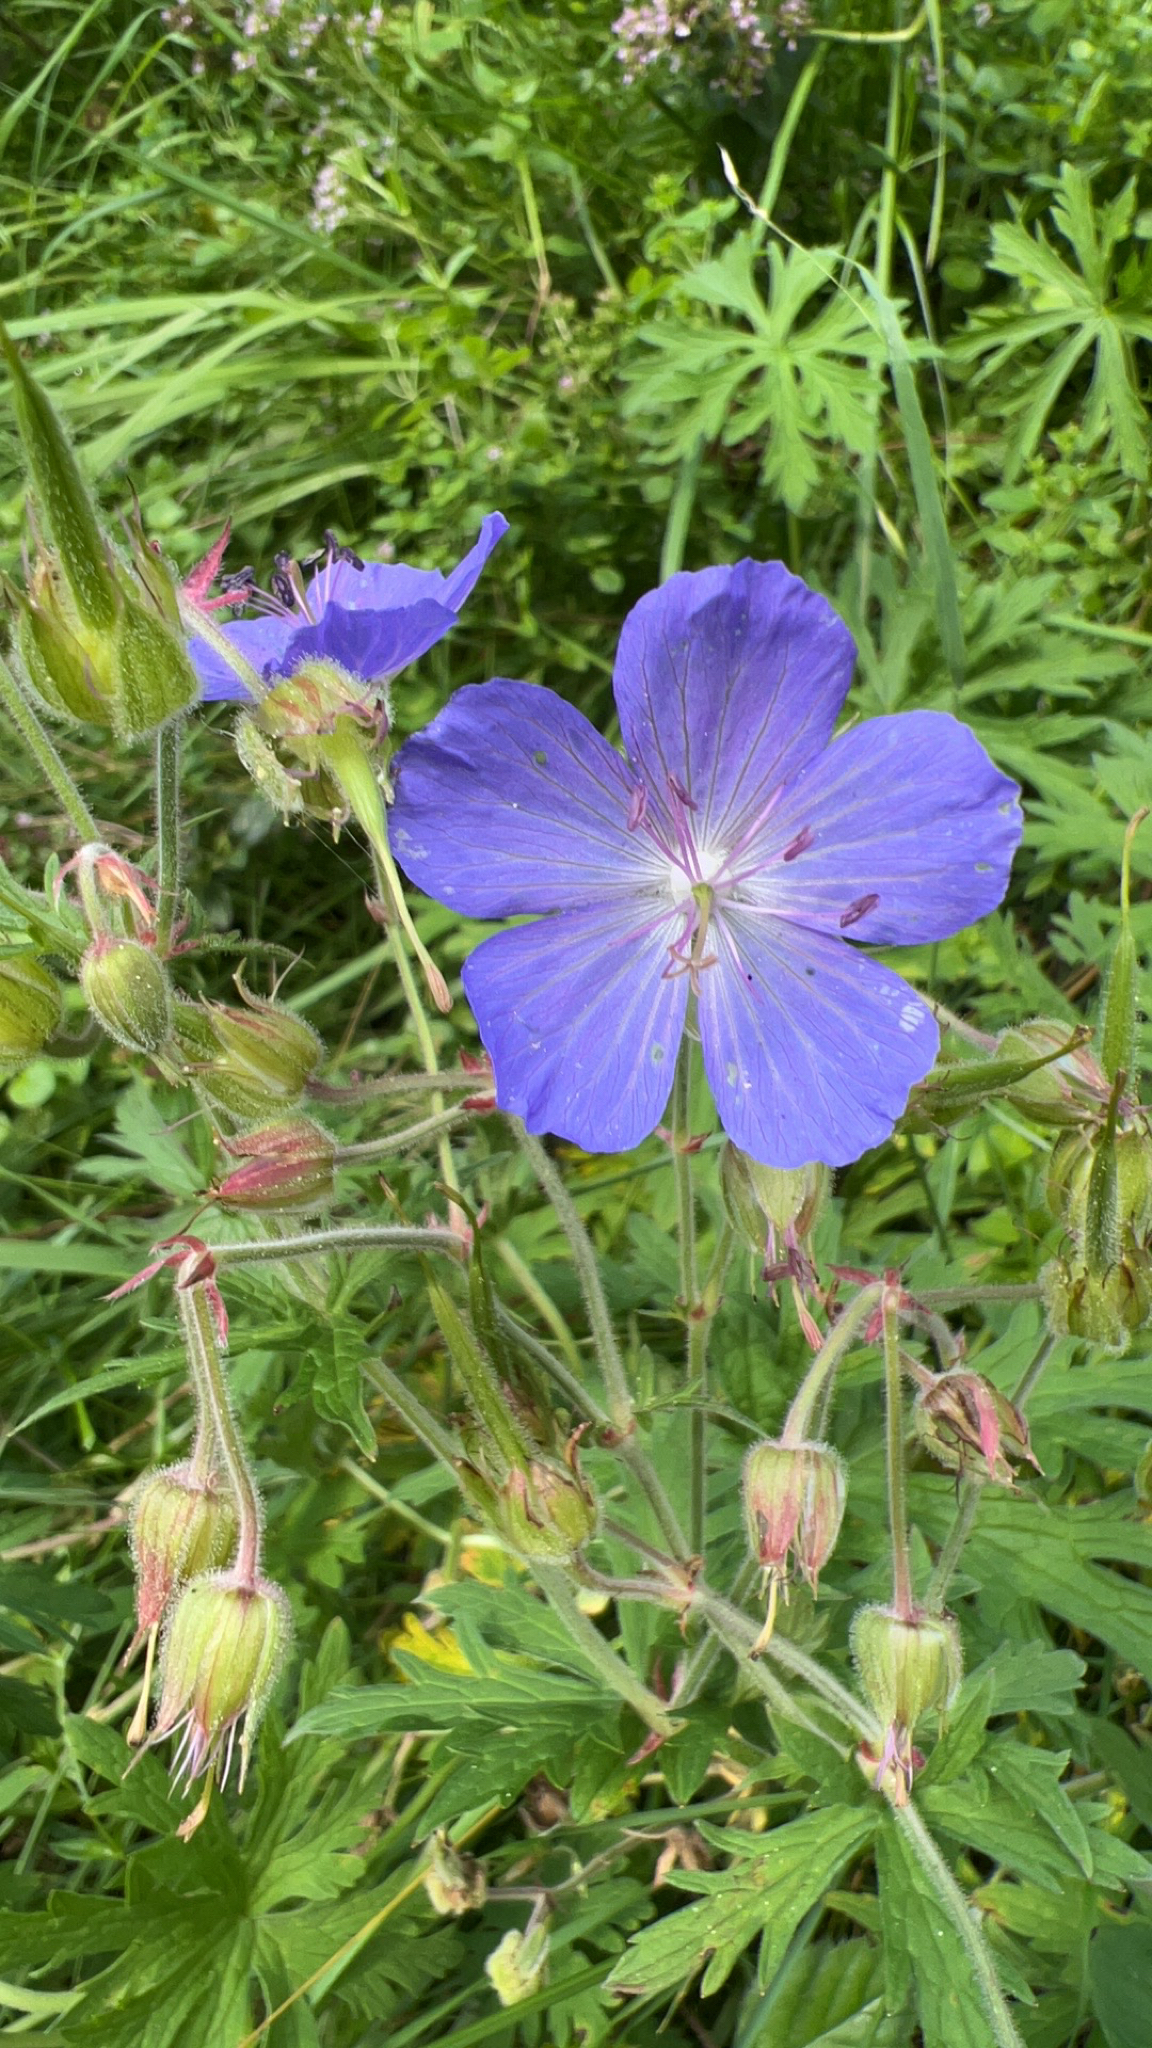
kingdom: Plantae
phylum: Tracheophyta
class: Magnoliopsida
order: Geraniales
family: Geraniaceae
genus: Geranium
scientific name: Geranium pratense
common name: Meadow crane's-bill
